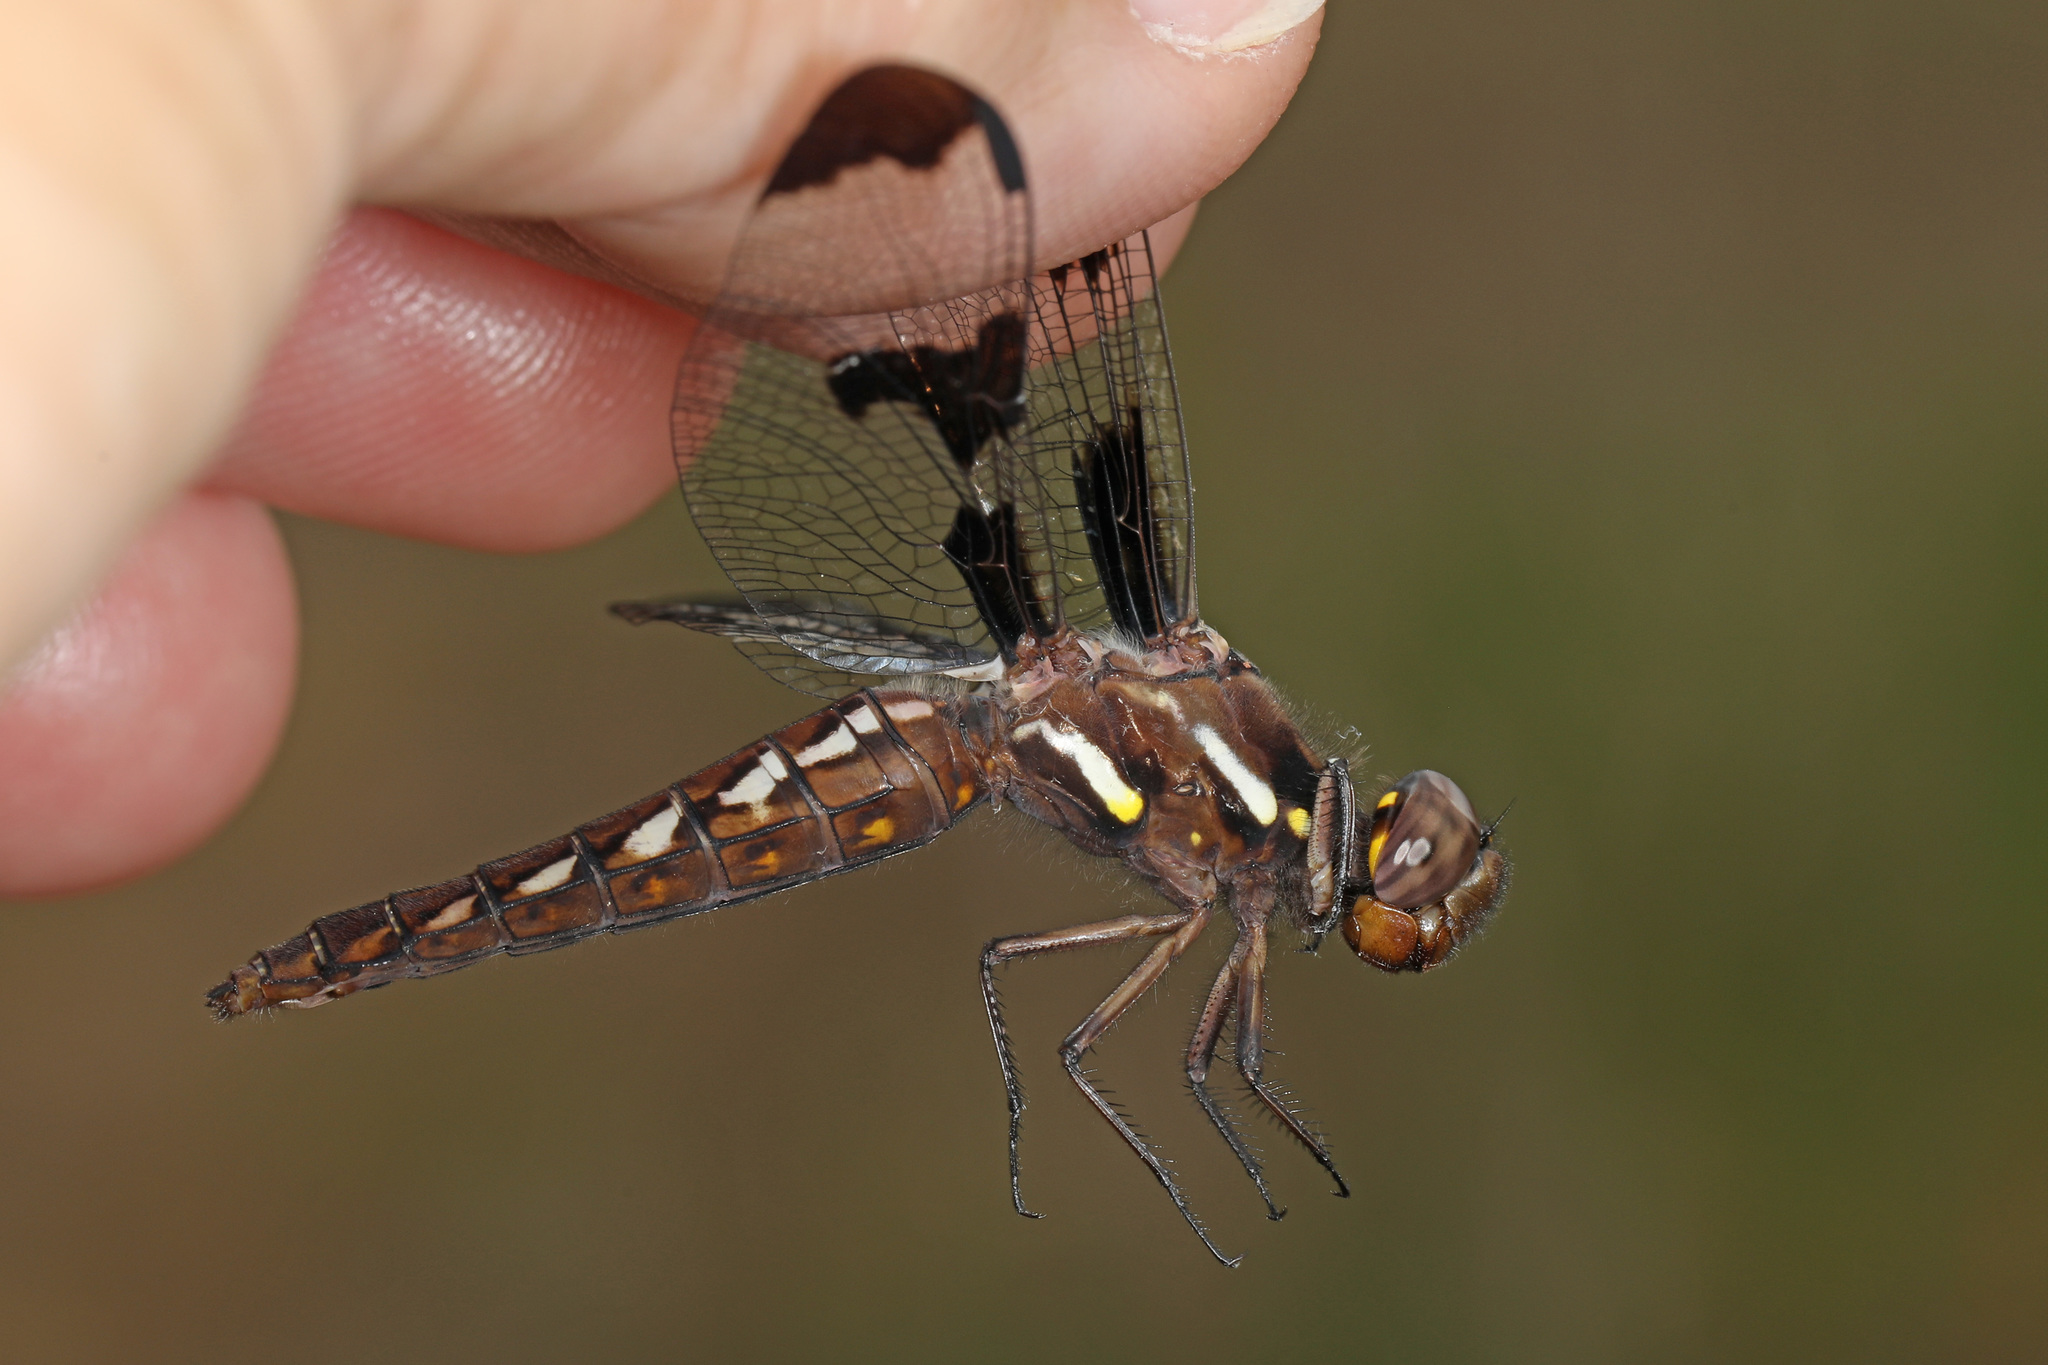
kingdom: Animalia
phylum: Arthropoda
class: Insecta
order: Odonata
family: Libellulidae
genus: Plathemis
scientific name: Plathemis lydia
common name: Common whitetail
